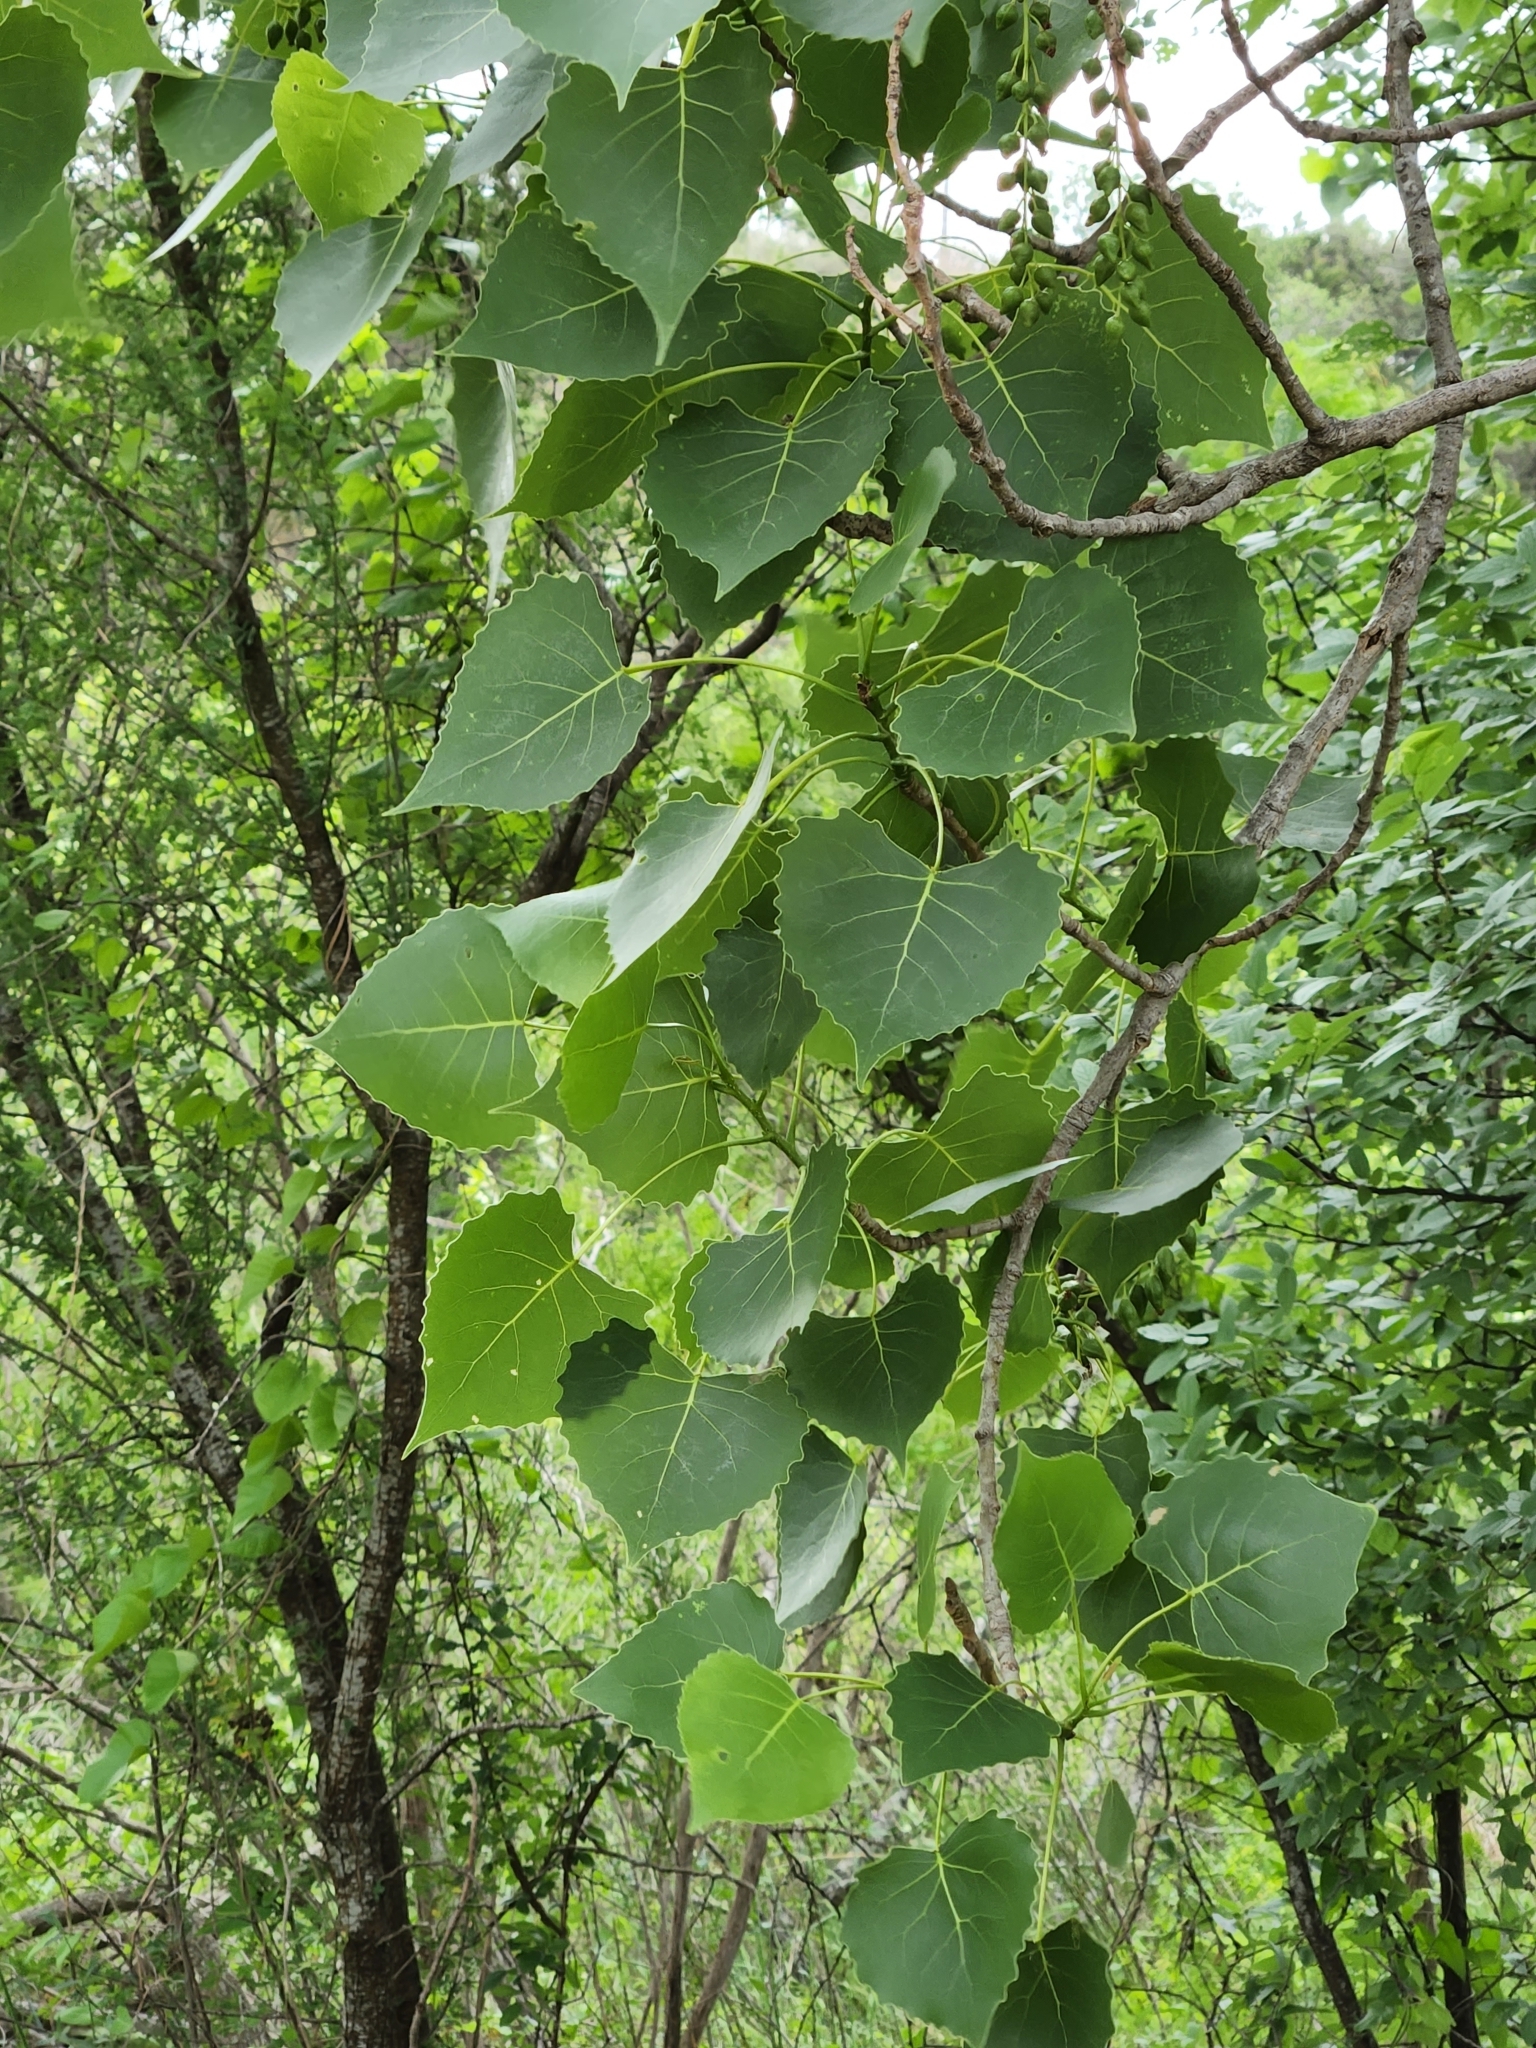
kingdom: Plantae
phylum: Tracheophyta
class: Magnoliopsida
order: Malpighiales
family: Salicaceae
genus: Populus
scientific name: Populus deltoides
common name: Eastern cottonwood
